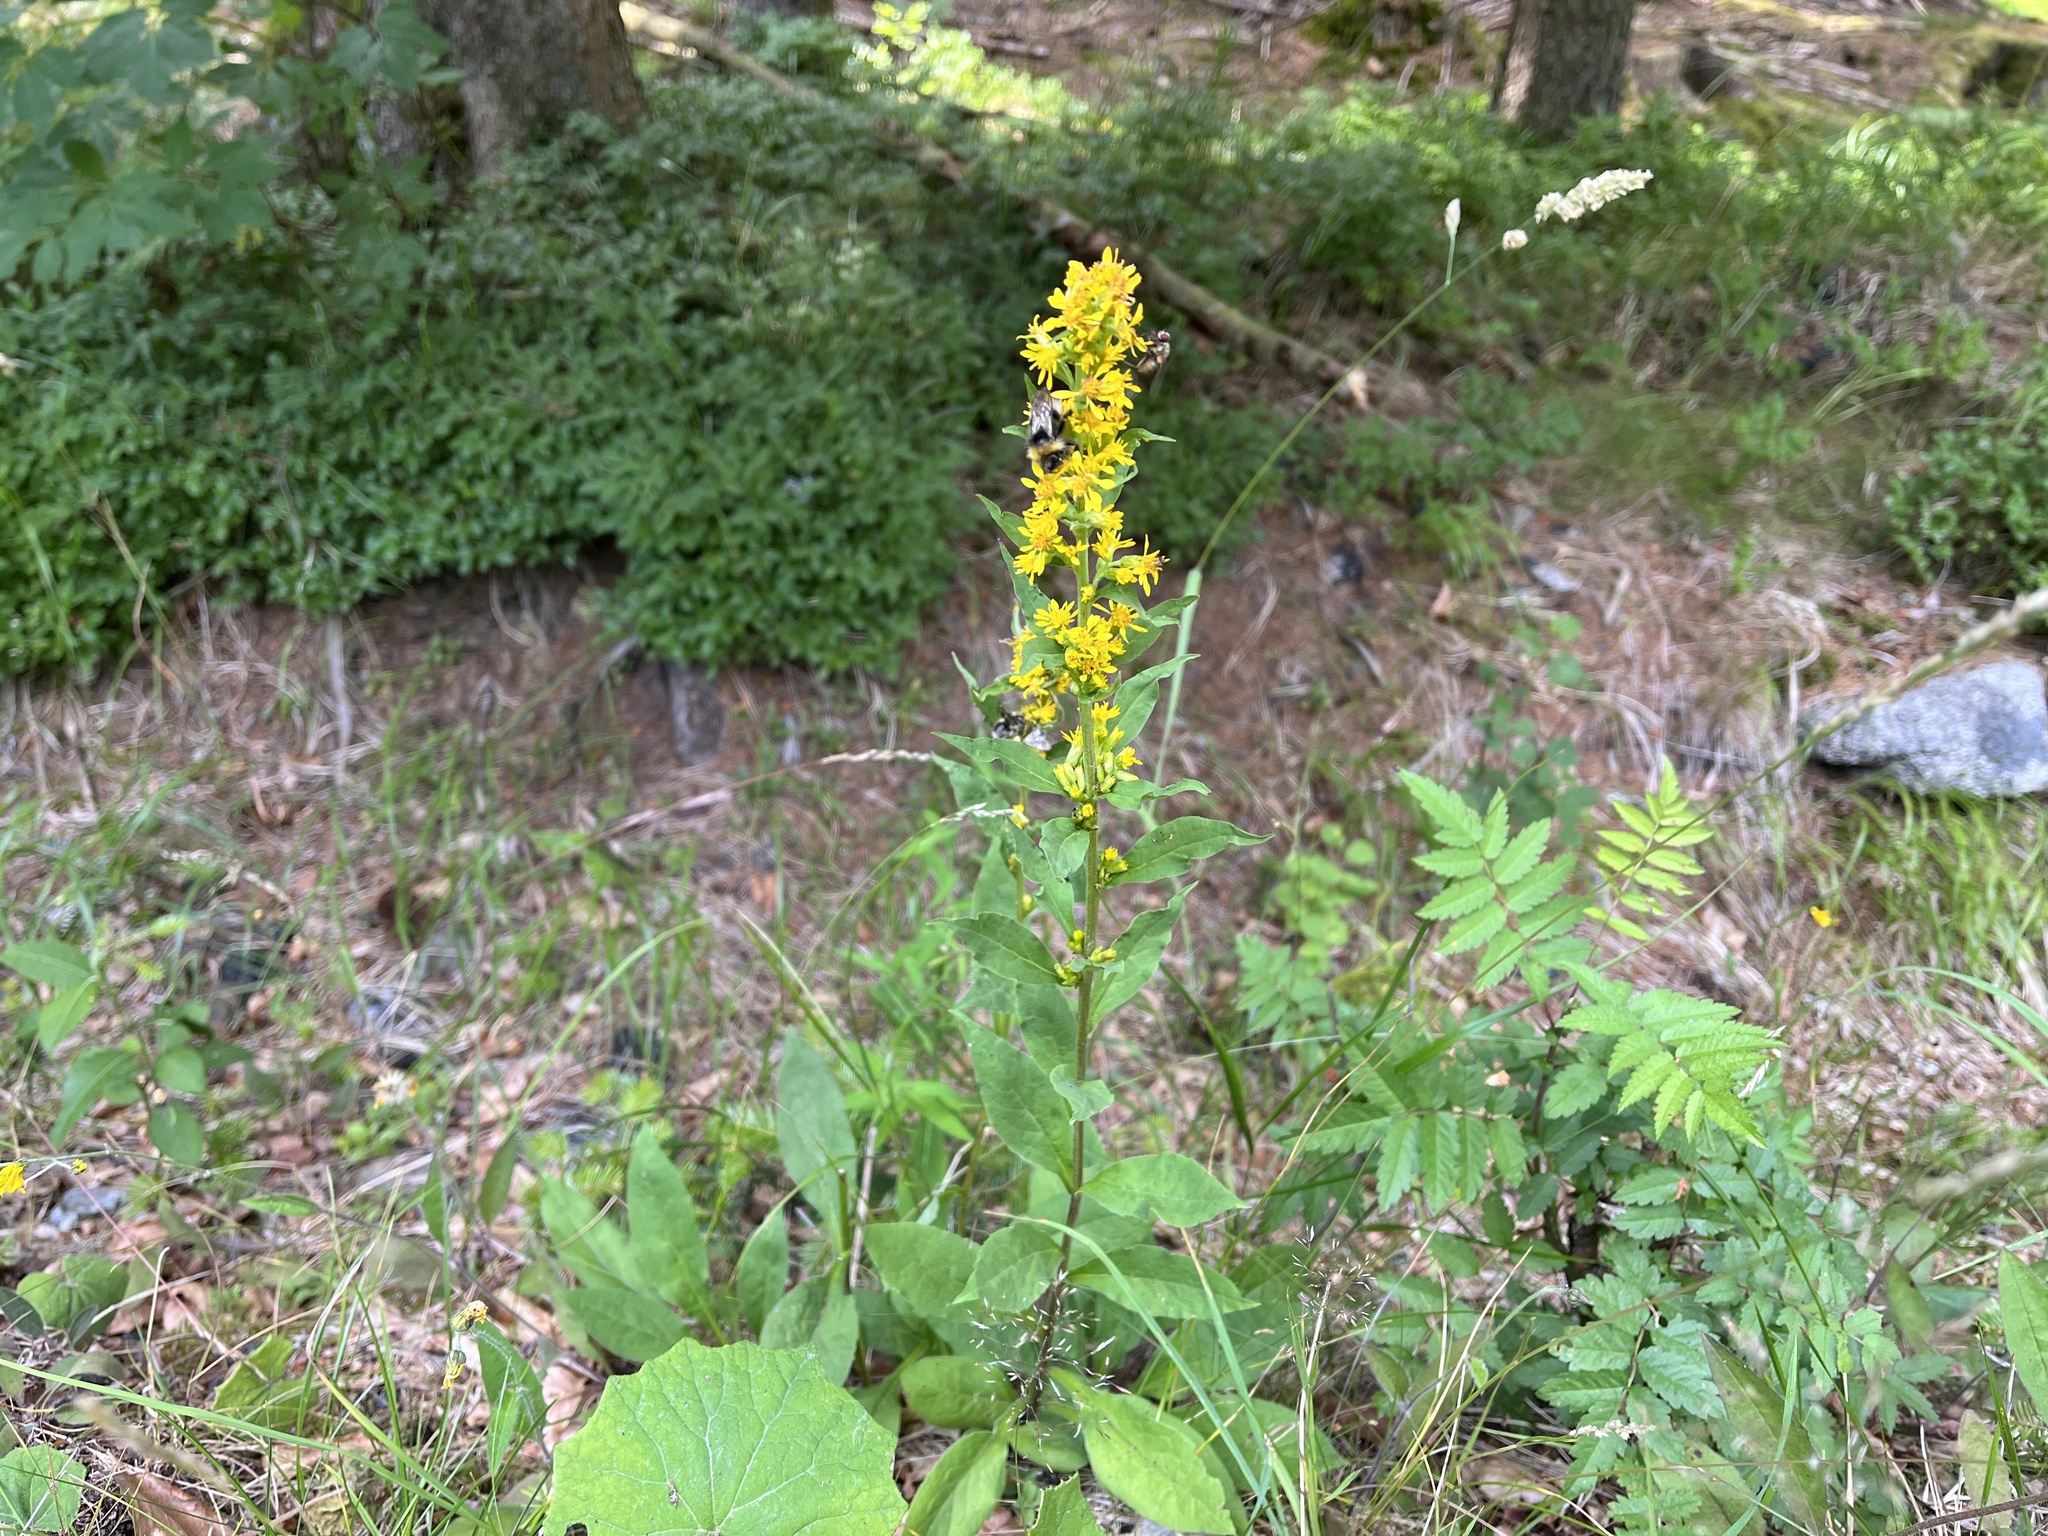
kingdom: Plantae
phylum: Tracheophyta
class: Magnoliopsida
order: Asterales
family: Asteraceae
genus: Solidago
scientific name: Solidago virgaurea
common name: Goldenrod
